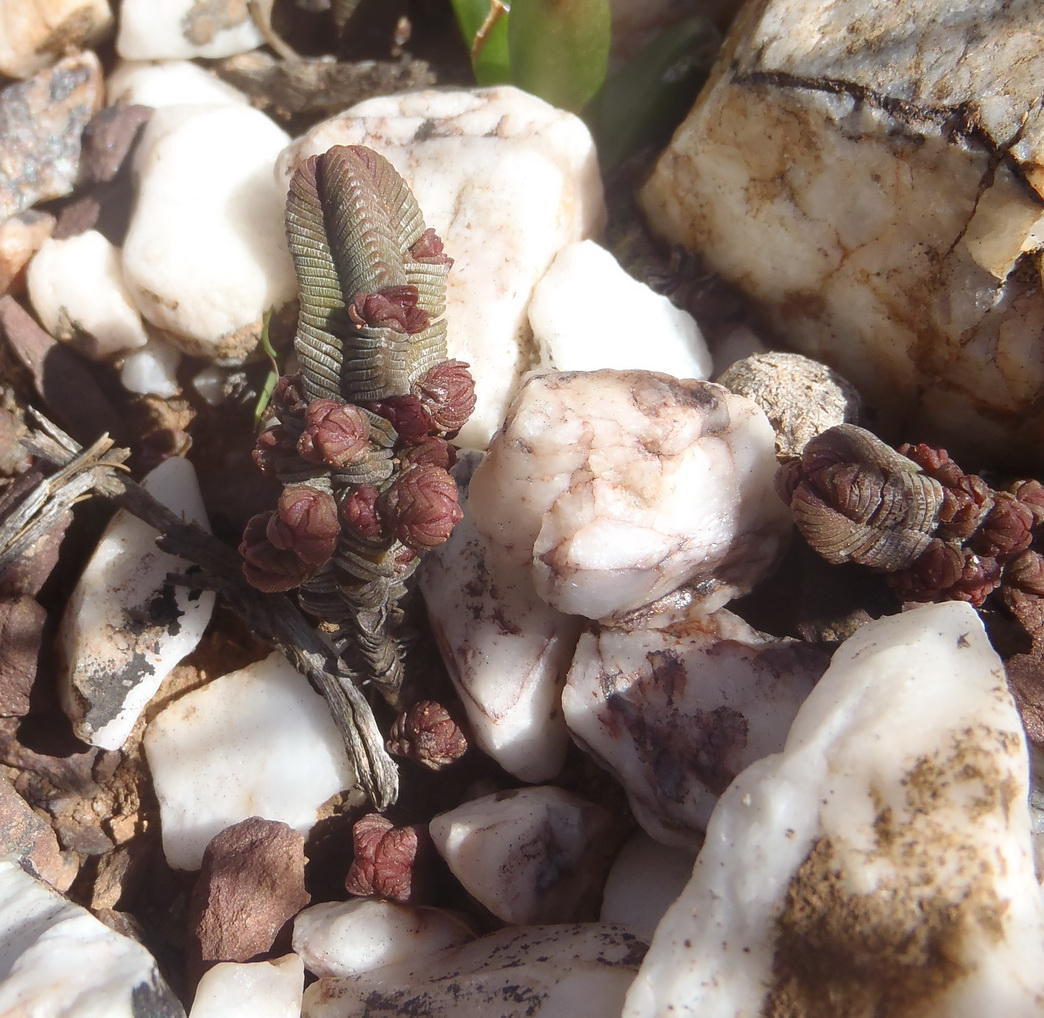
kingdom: Plantae
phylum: Tracheophyta
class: Magnoliopsida
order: Saxifragales
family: Crassulaceae
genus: Crassula
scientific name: Crassula pyramidalis
